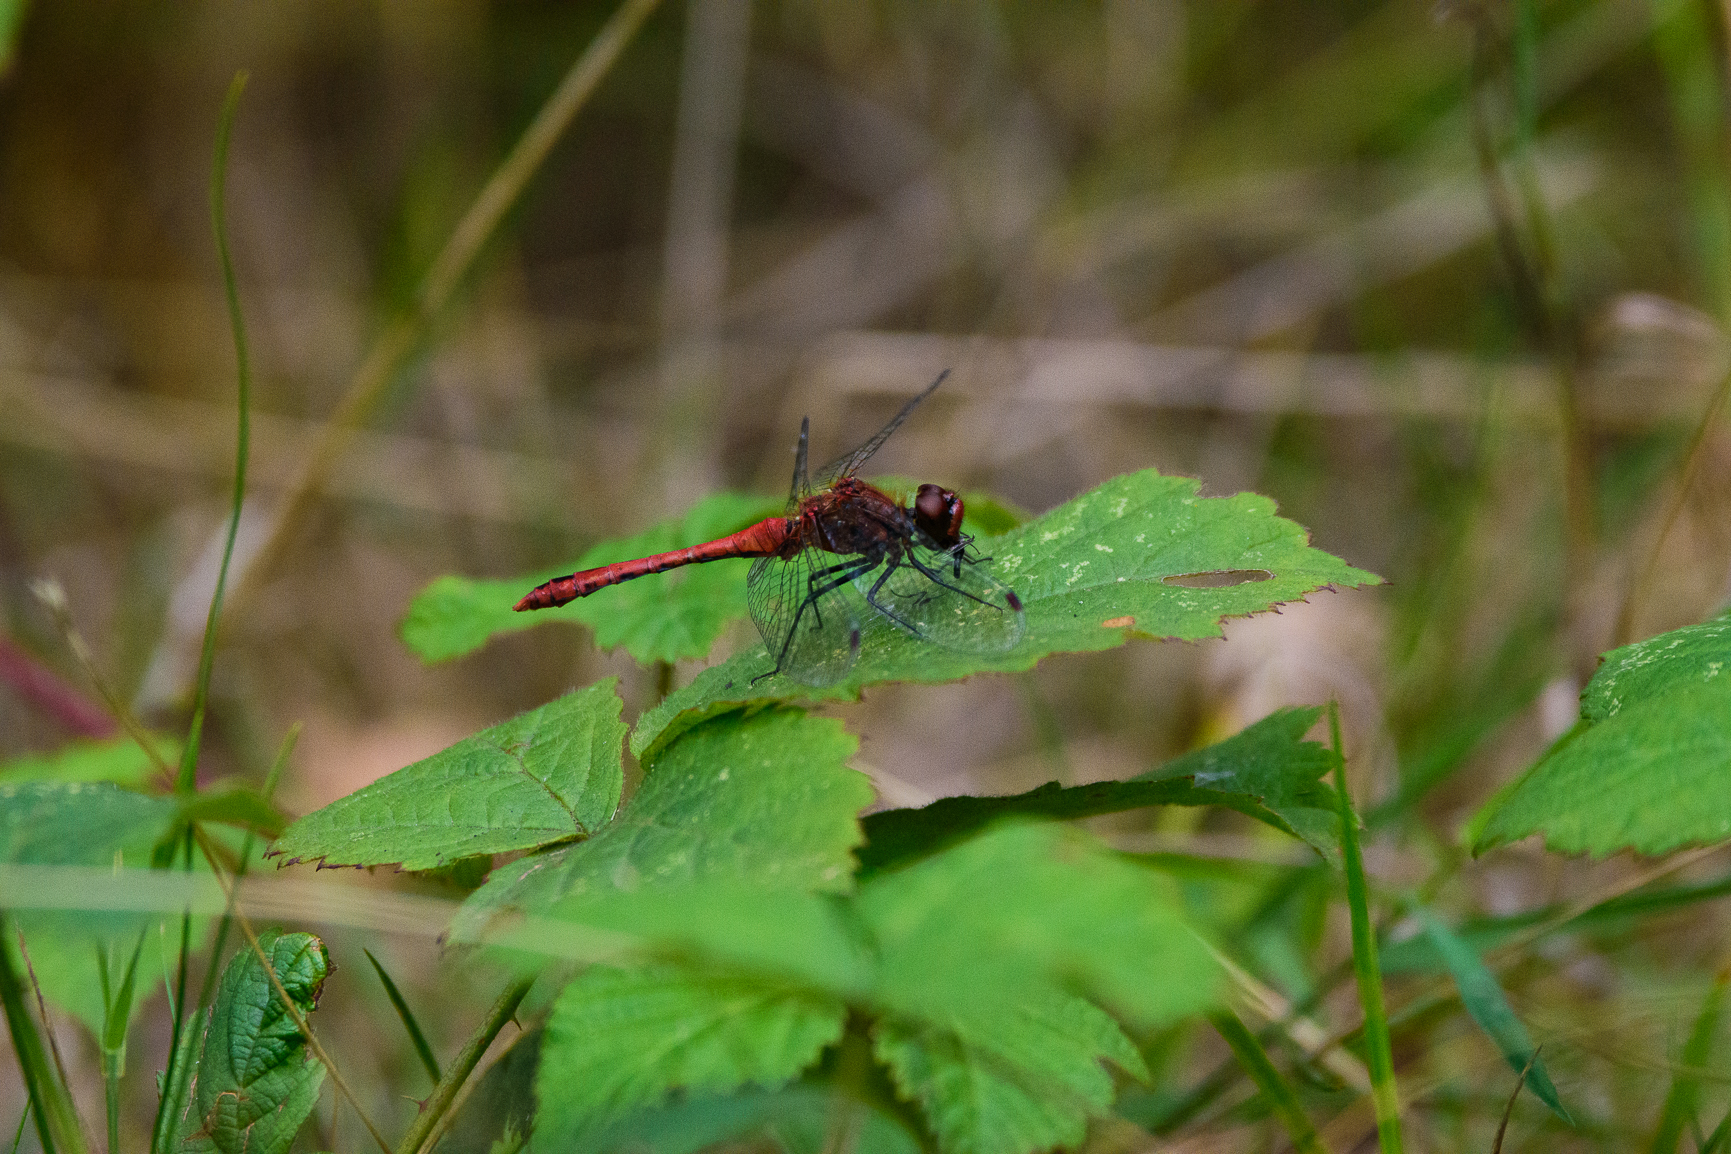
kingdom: Animalia
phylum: Arthropoda
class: Insecta
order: Odonata
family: Libellulidae
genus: Sympetrum
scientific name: Sympetrum sanguineum
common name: Ruddy darter
